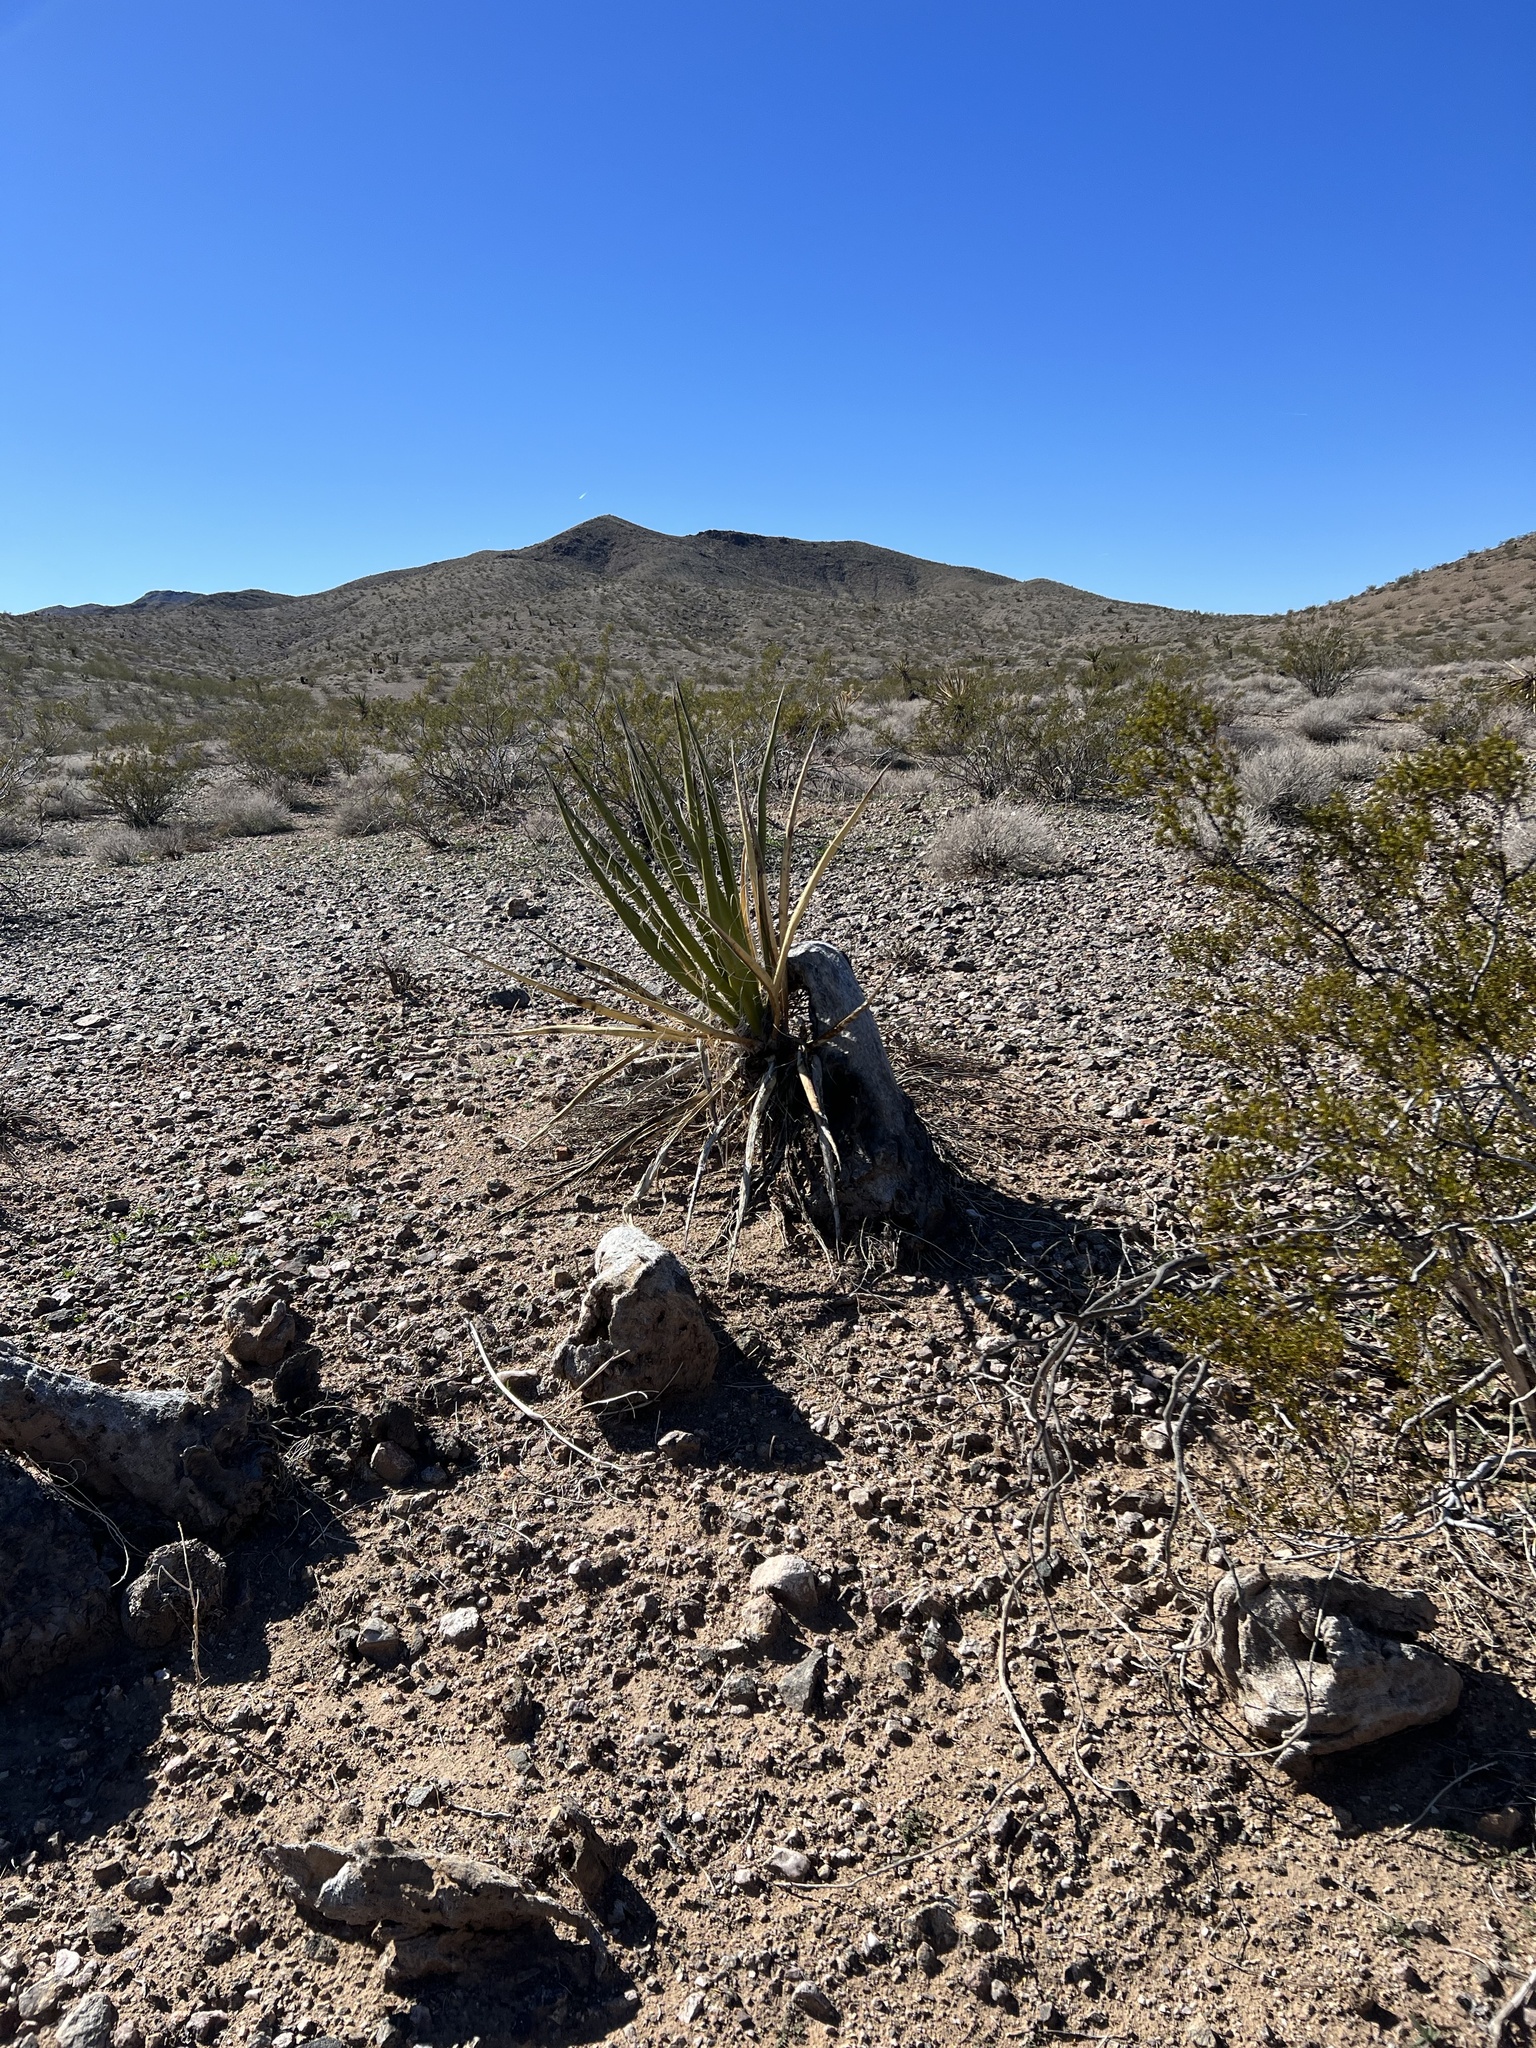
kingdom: Plantae
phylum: Tracheophyta
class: Liliopsida
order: Asparagales
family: Asparagaceae
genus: Yucca
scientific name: Yucca schidigera
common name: Mojave yucca
